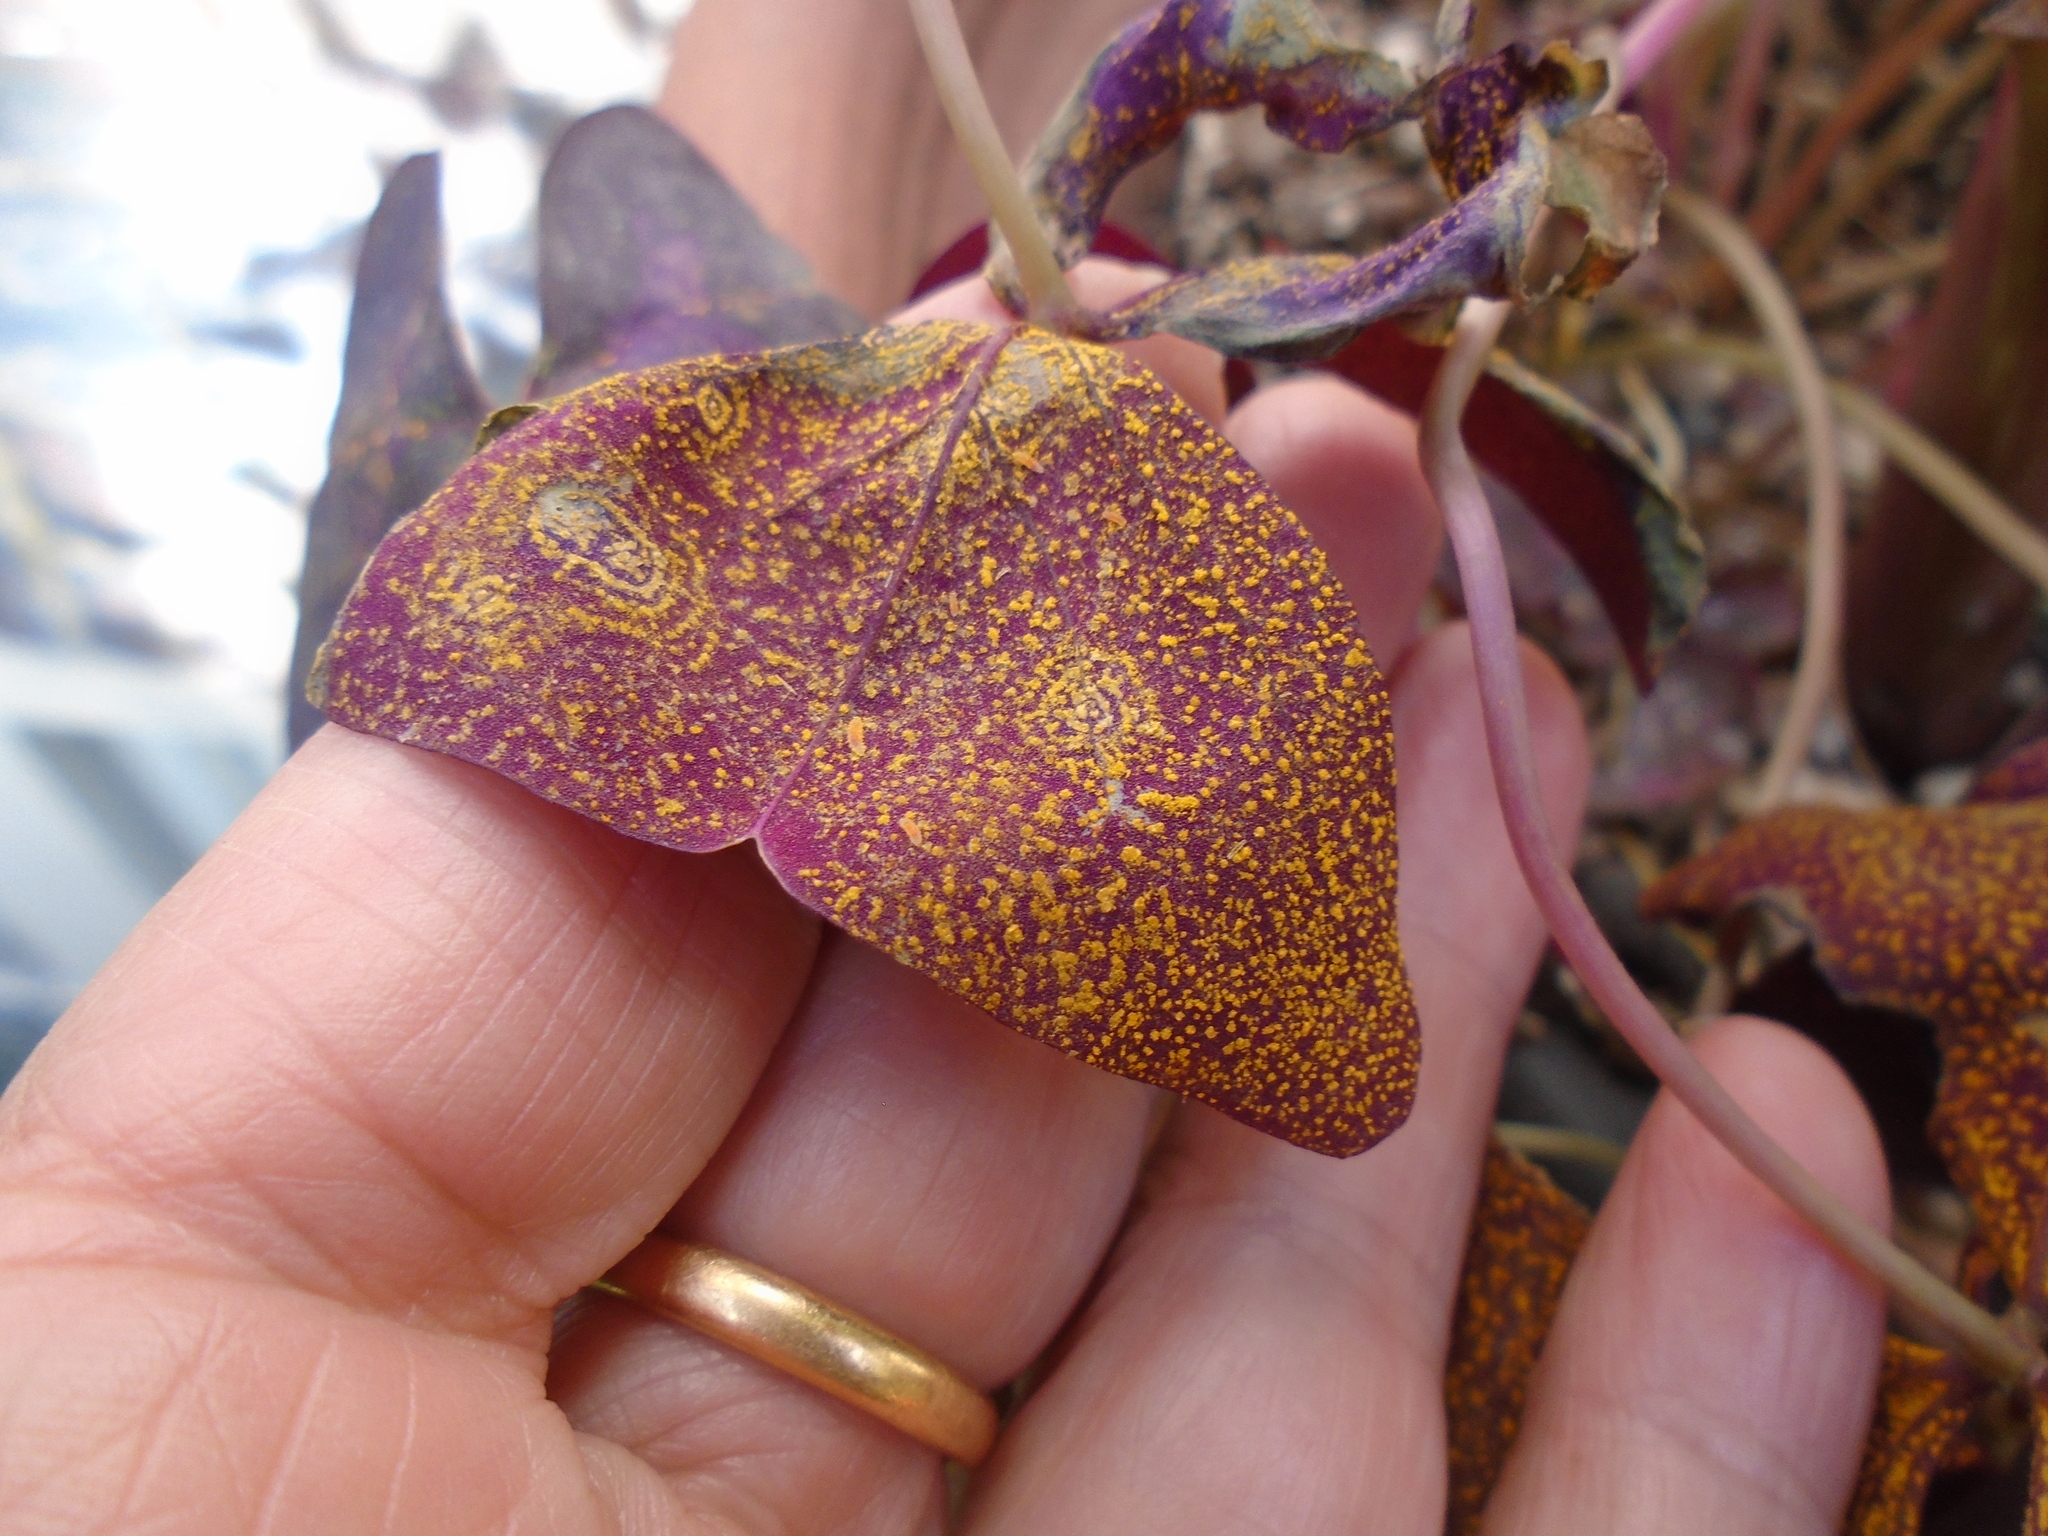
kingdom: Fungi
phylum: Basidiomycota
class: Pucciniomycetes
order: Pucciniales
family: Pucciniaceae
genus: Puccinia
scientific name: Puccinia oxalidis
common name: Oxalis rust
